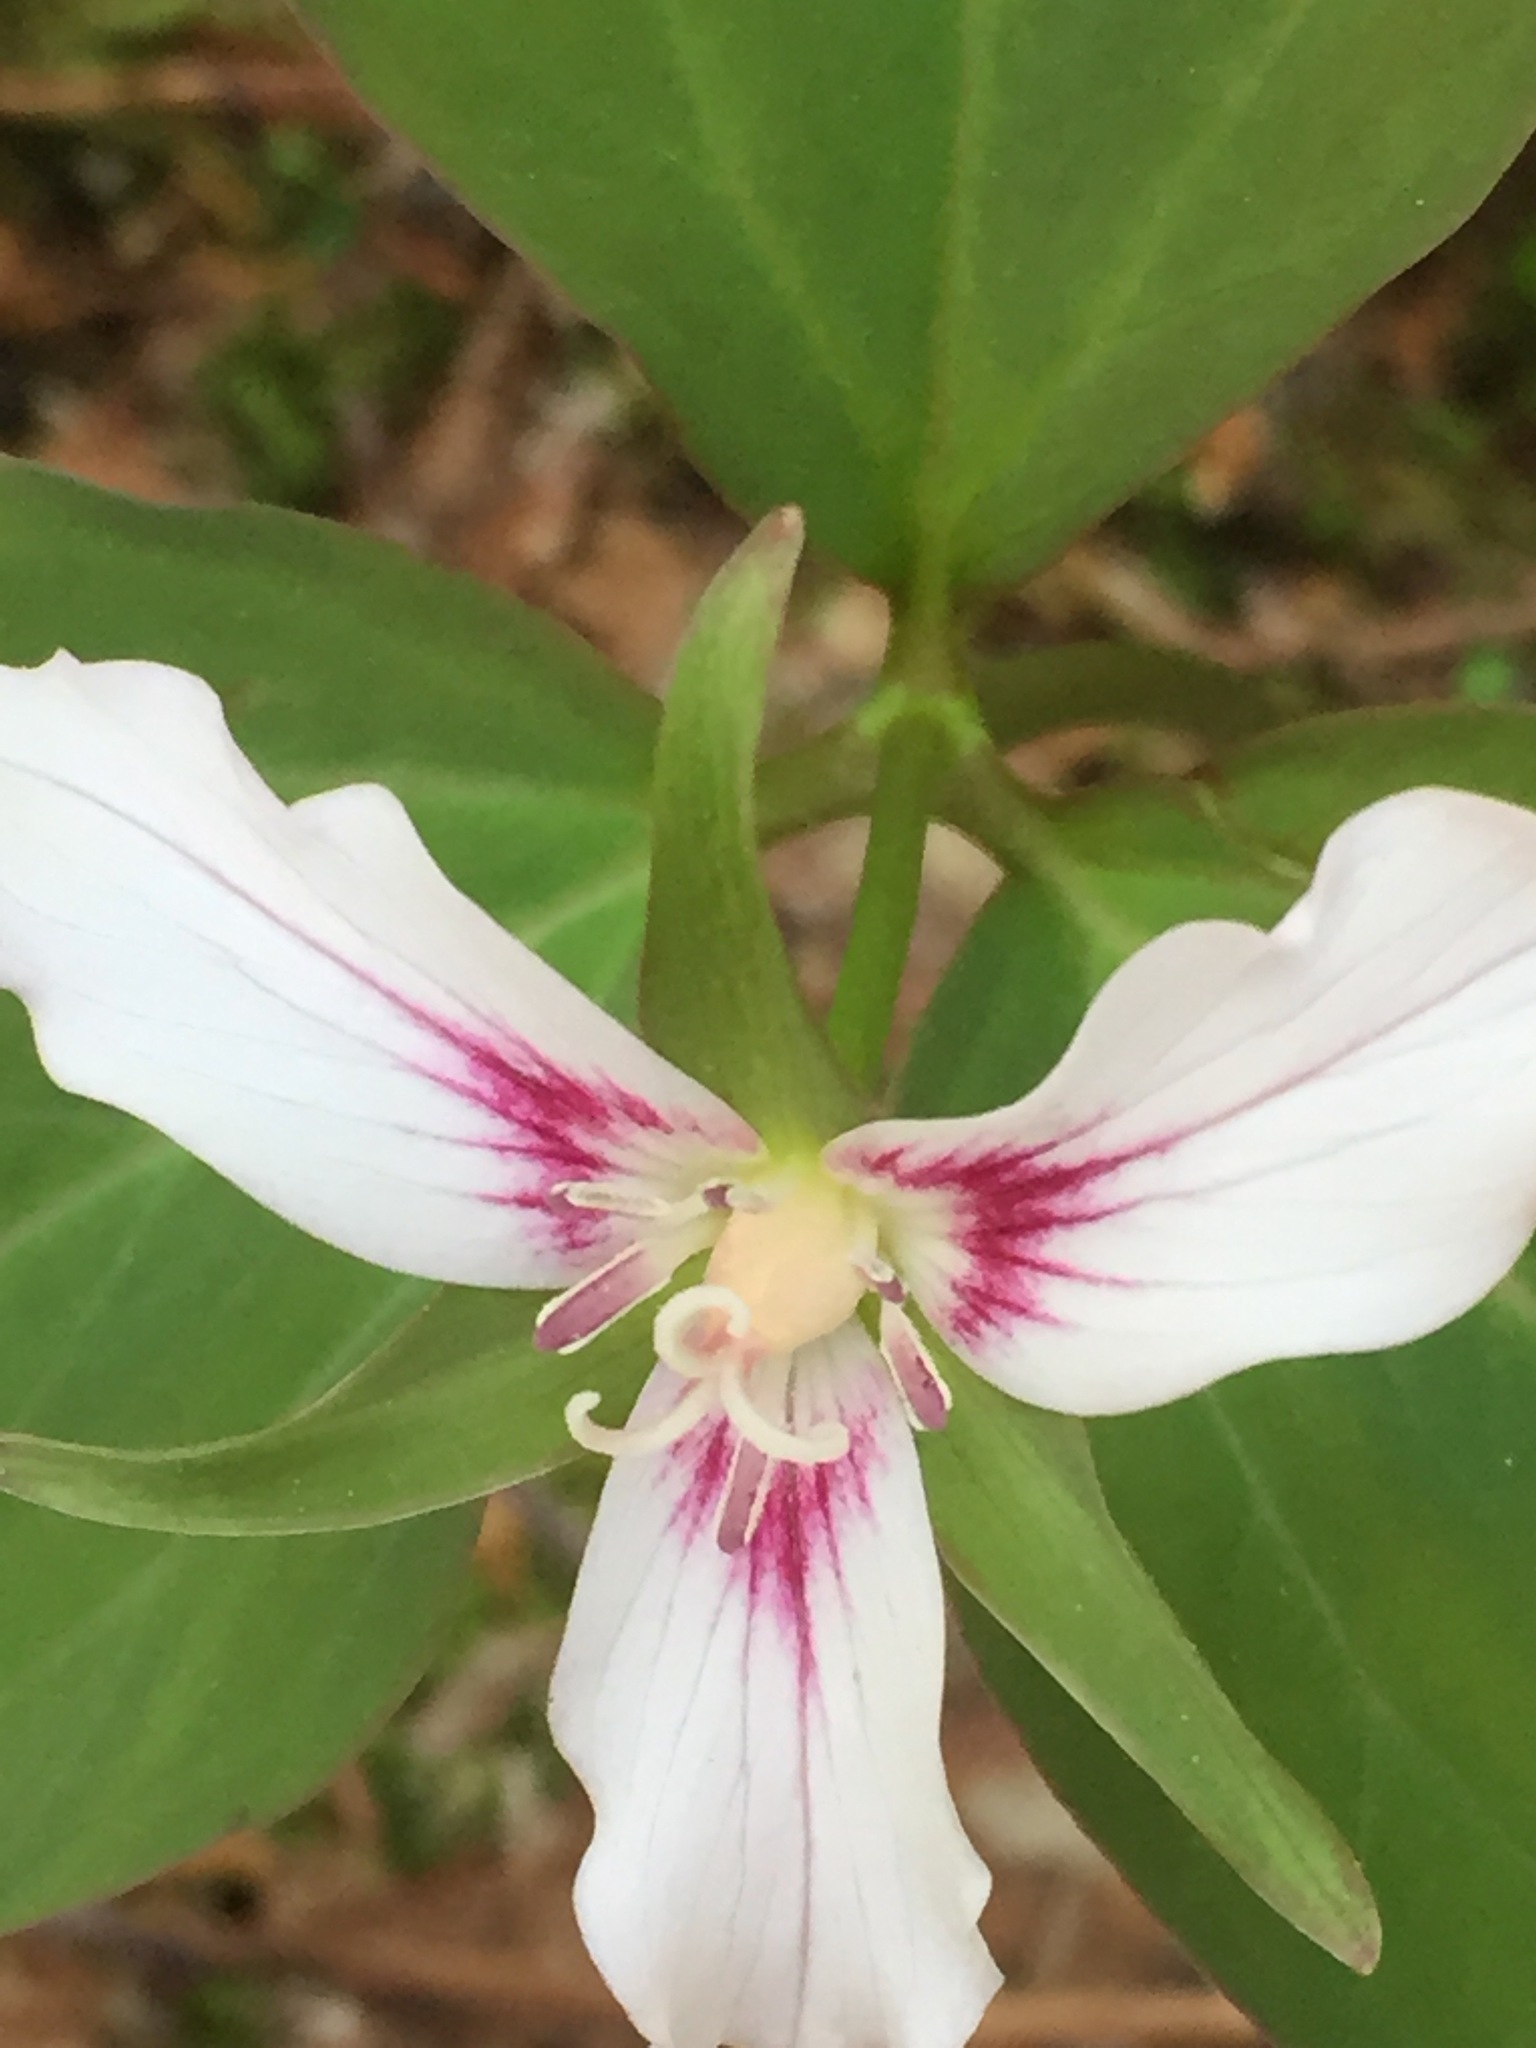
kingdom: Plantae
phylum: Tracheophyta
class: Liliopsida
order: Liliales
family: Melanthiaceae
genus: Trillium
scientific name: Trillium undulatum
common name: Paint trillium
